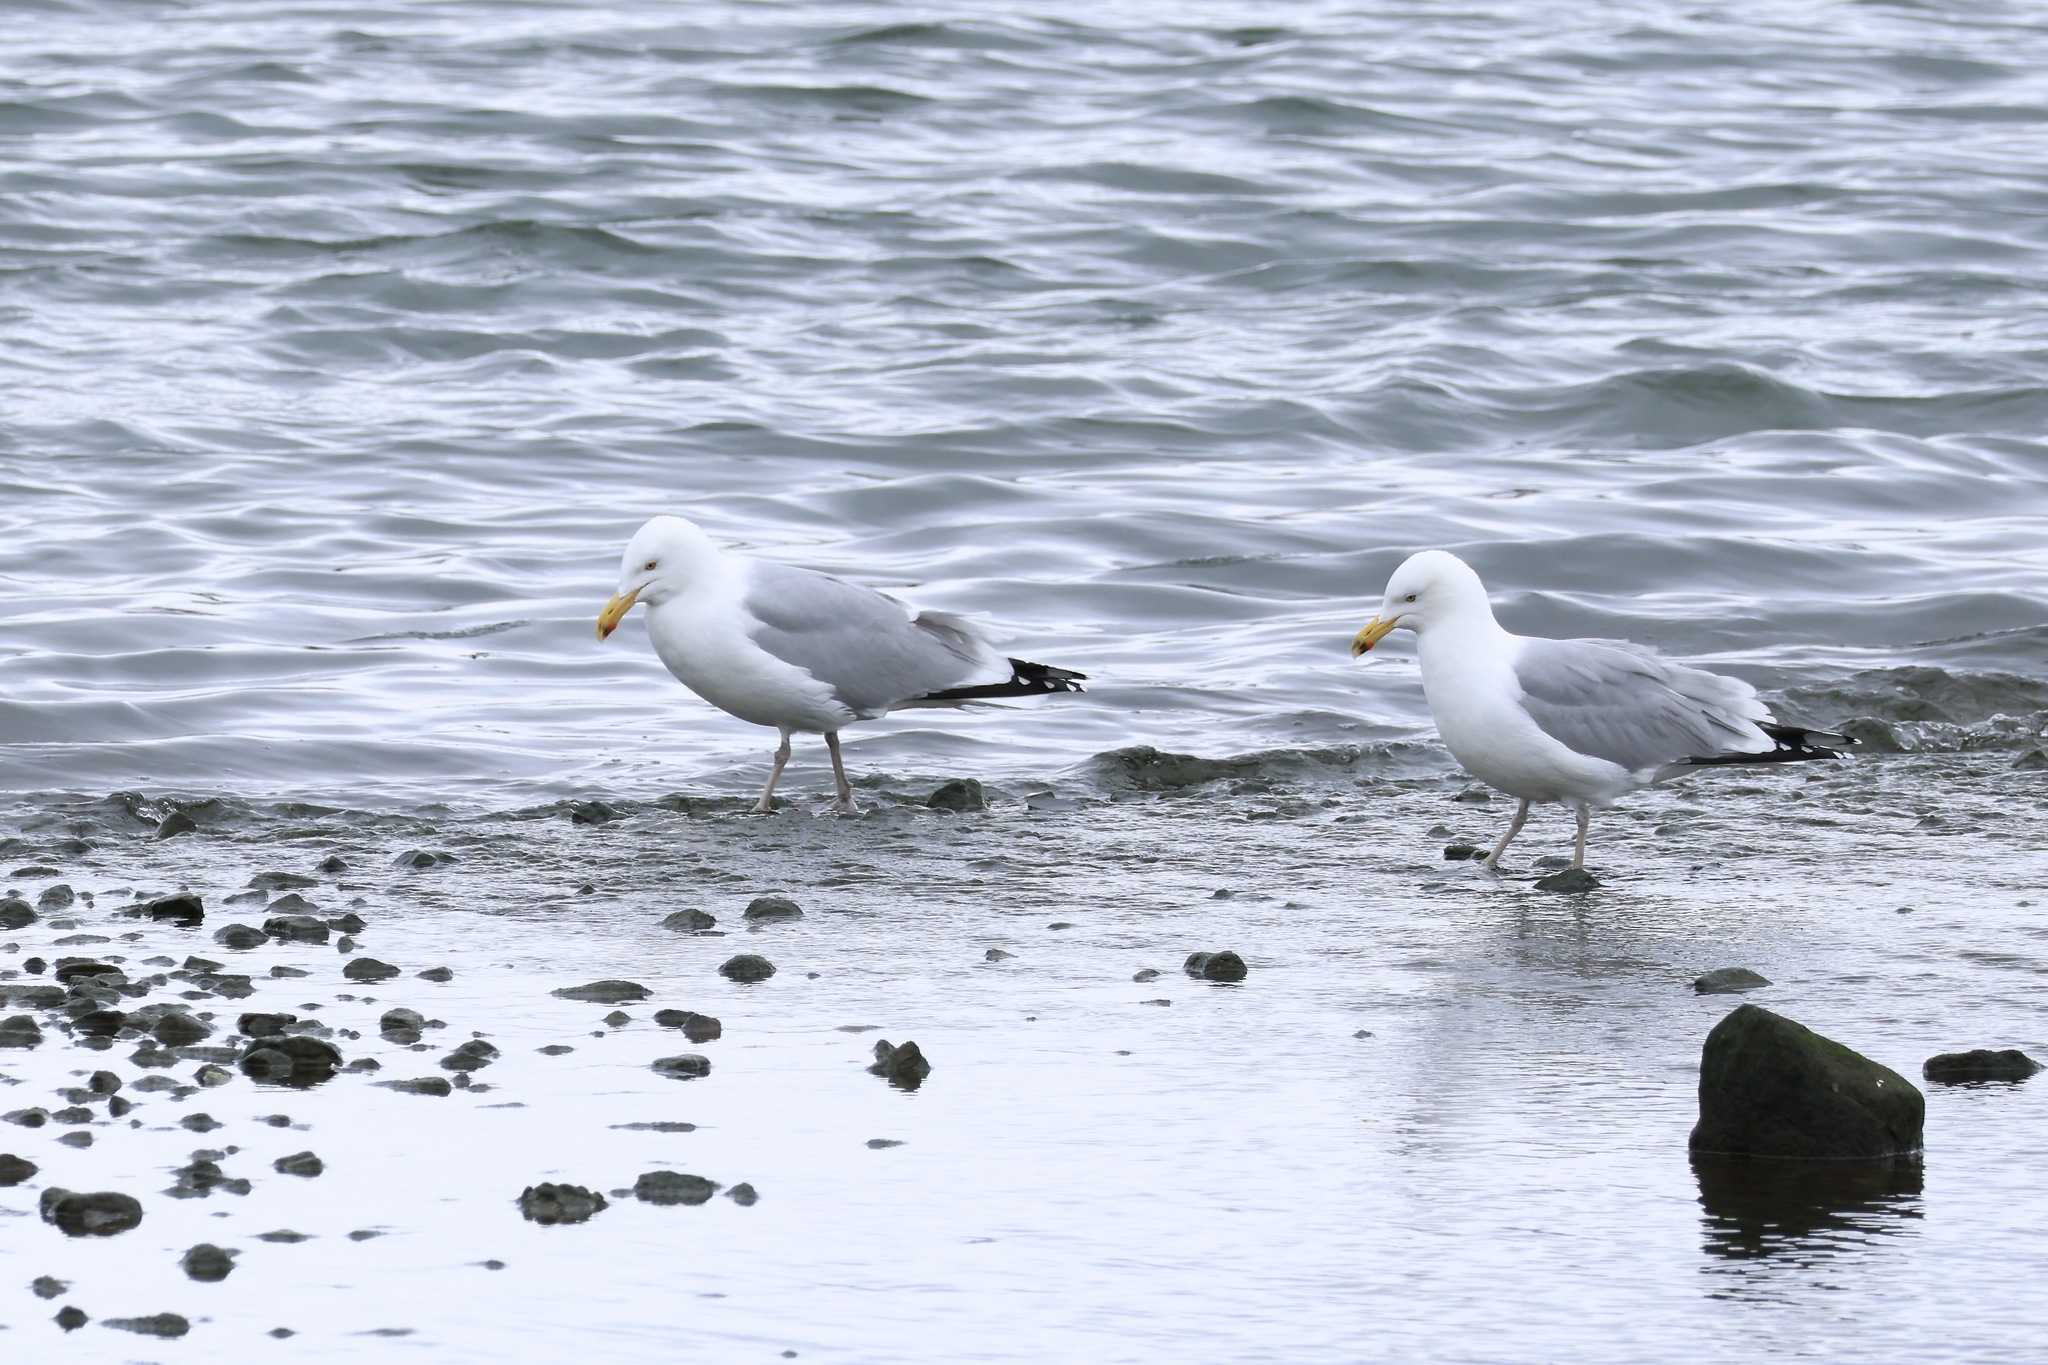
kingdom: Animalia
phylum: Chordata
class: Aves
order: Charadriiformes
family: Laridae
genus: Larus
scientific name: Larus argentatus
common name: Herring gull
